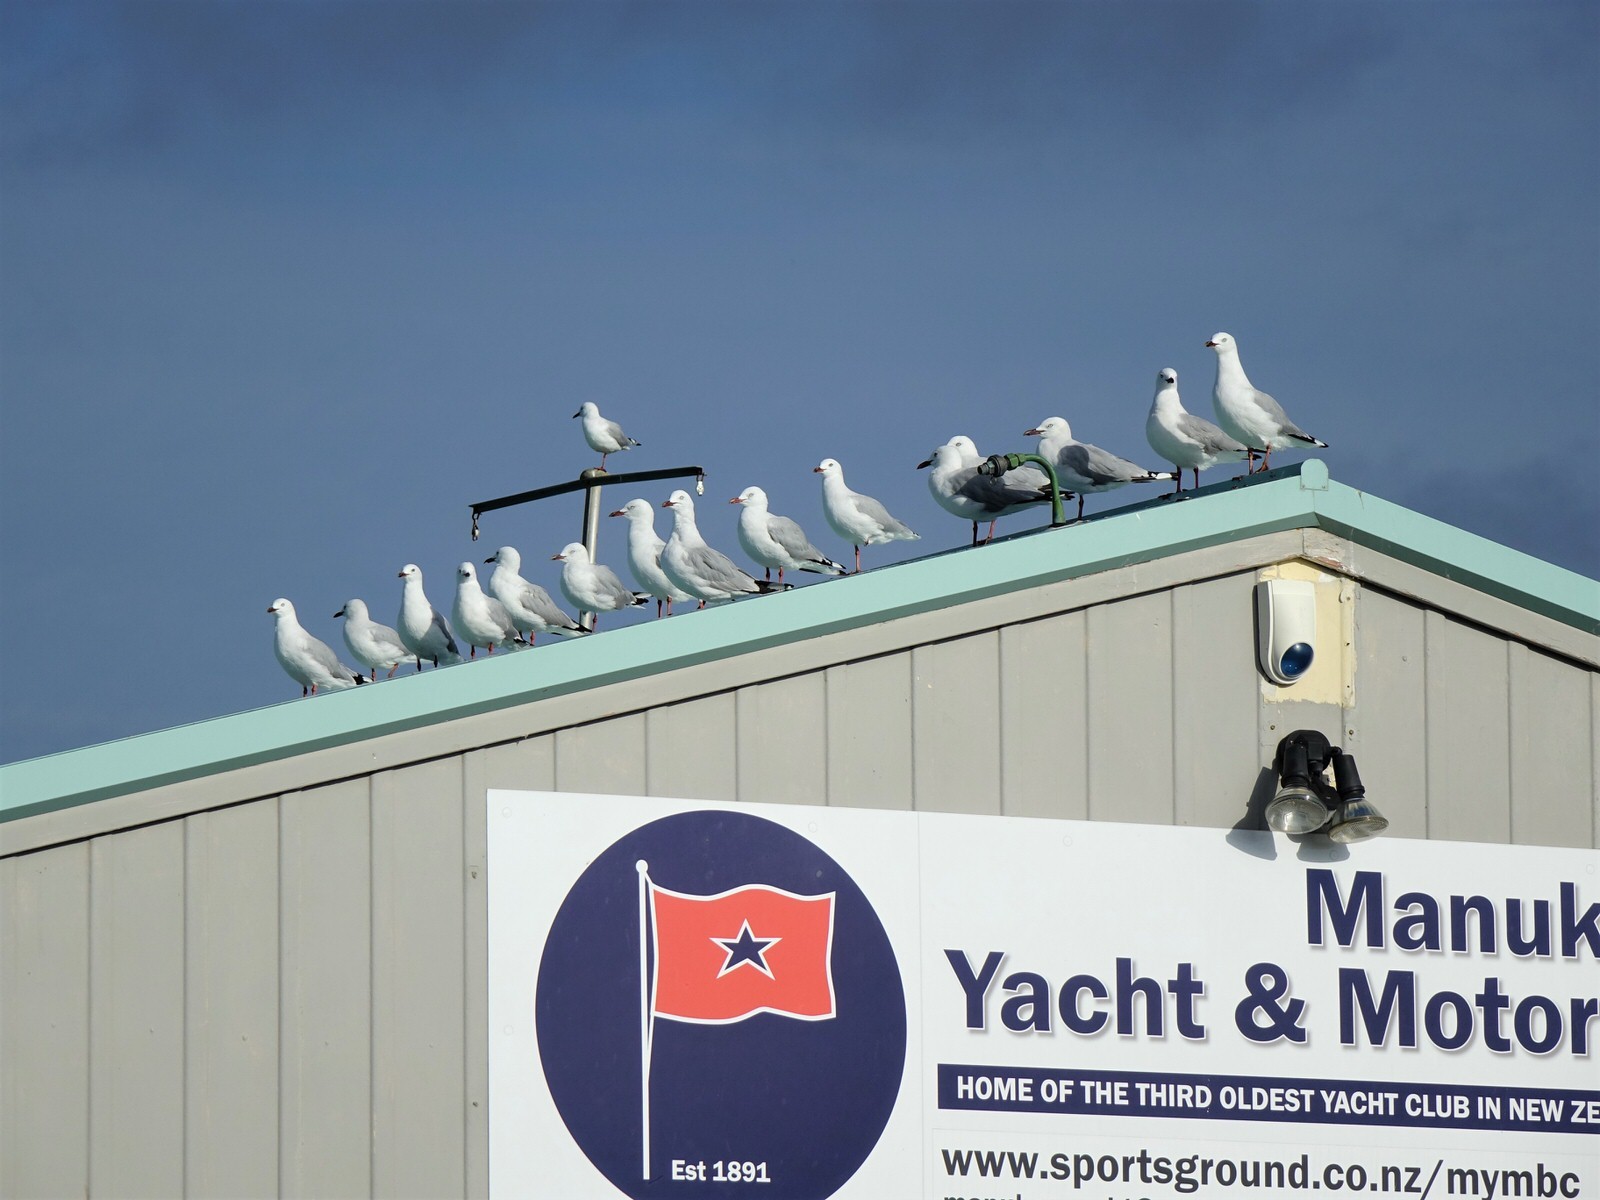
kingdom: Animalia
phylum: Chordata
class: Aves
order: Charadriiformes
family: Laridae
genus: Chroicocephalus
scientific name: Chroicocephalus novaehollandiae
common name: Silver gull
